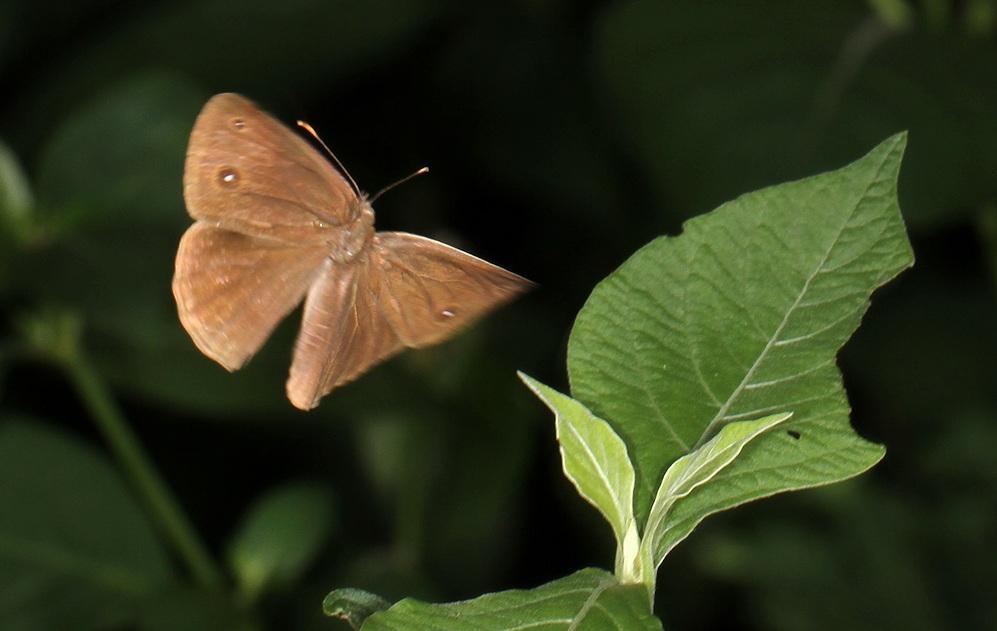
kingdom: Animalia
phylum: Arthropoda
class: Insecta
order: Lepidoptera
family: Nymphalidae
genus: Mycalesis
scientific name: Mycalesis anynana
